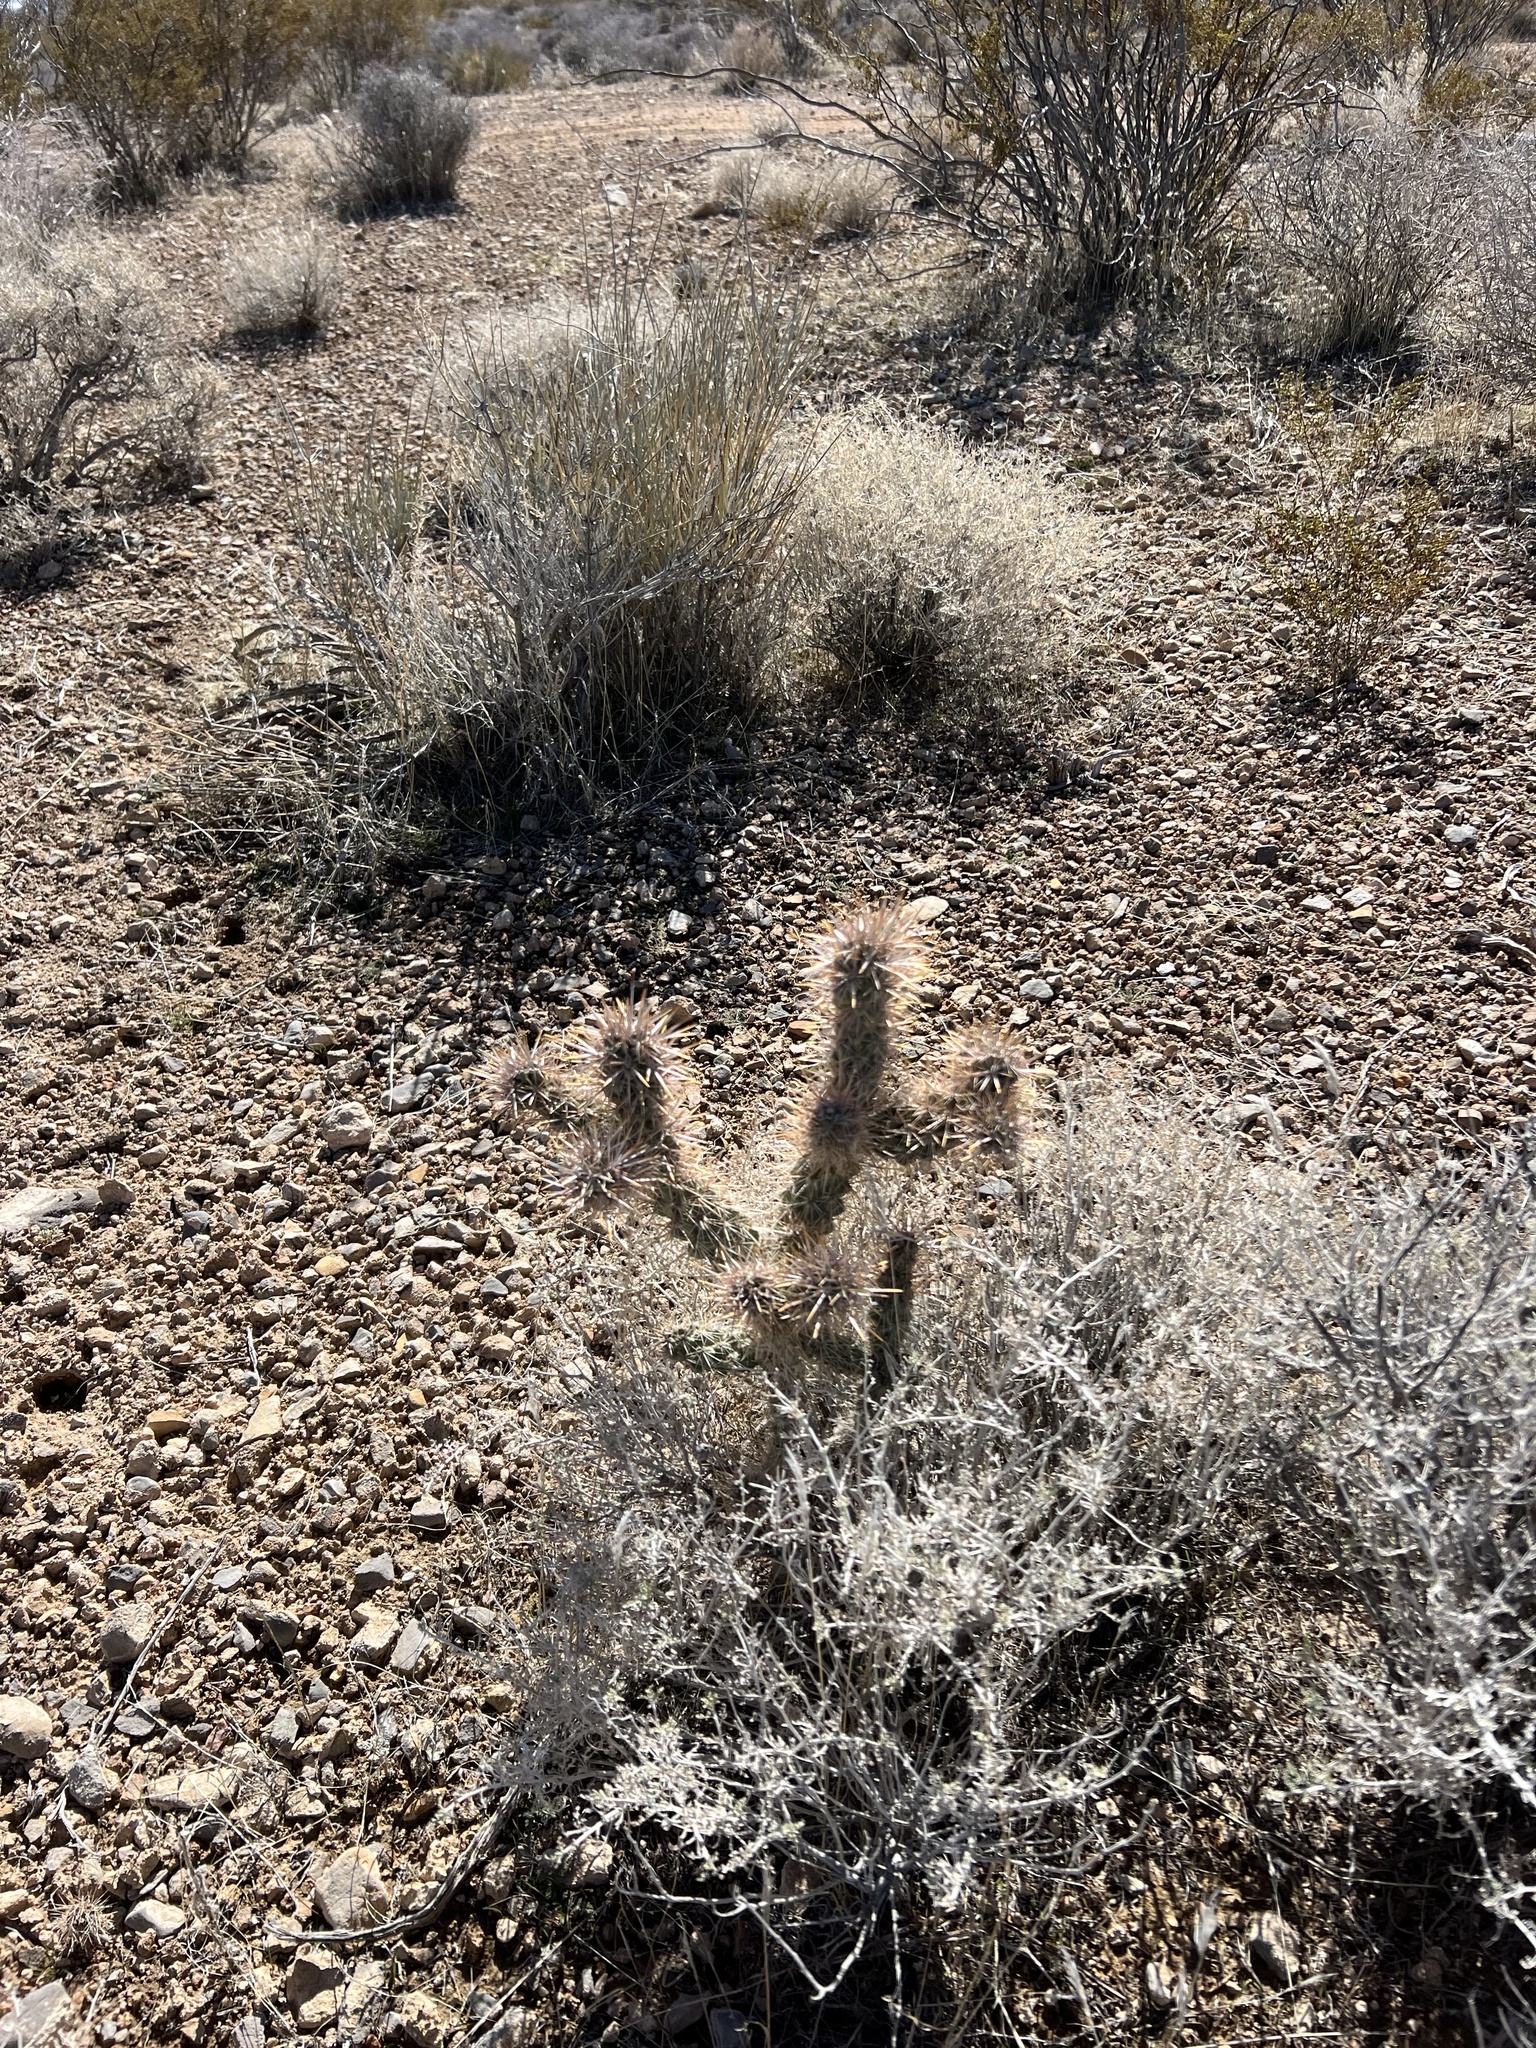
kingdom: Plantae
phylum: Tracheophyta
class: Magnoliopsida
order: Caryophyllales
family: Cactaceae
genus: Cylindropuntia
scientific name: Cylindropuntia echinocarpa
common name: Ground cholla
